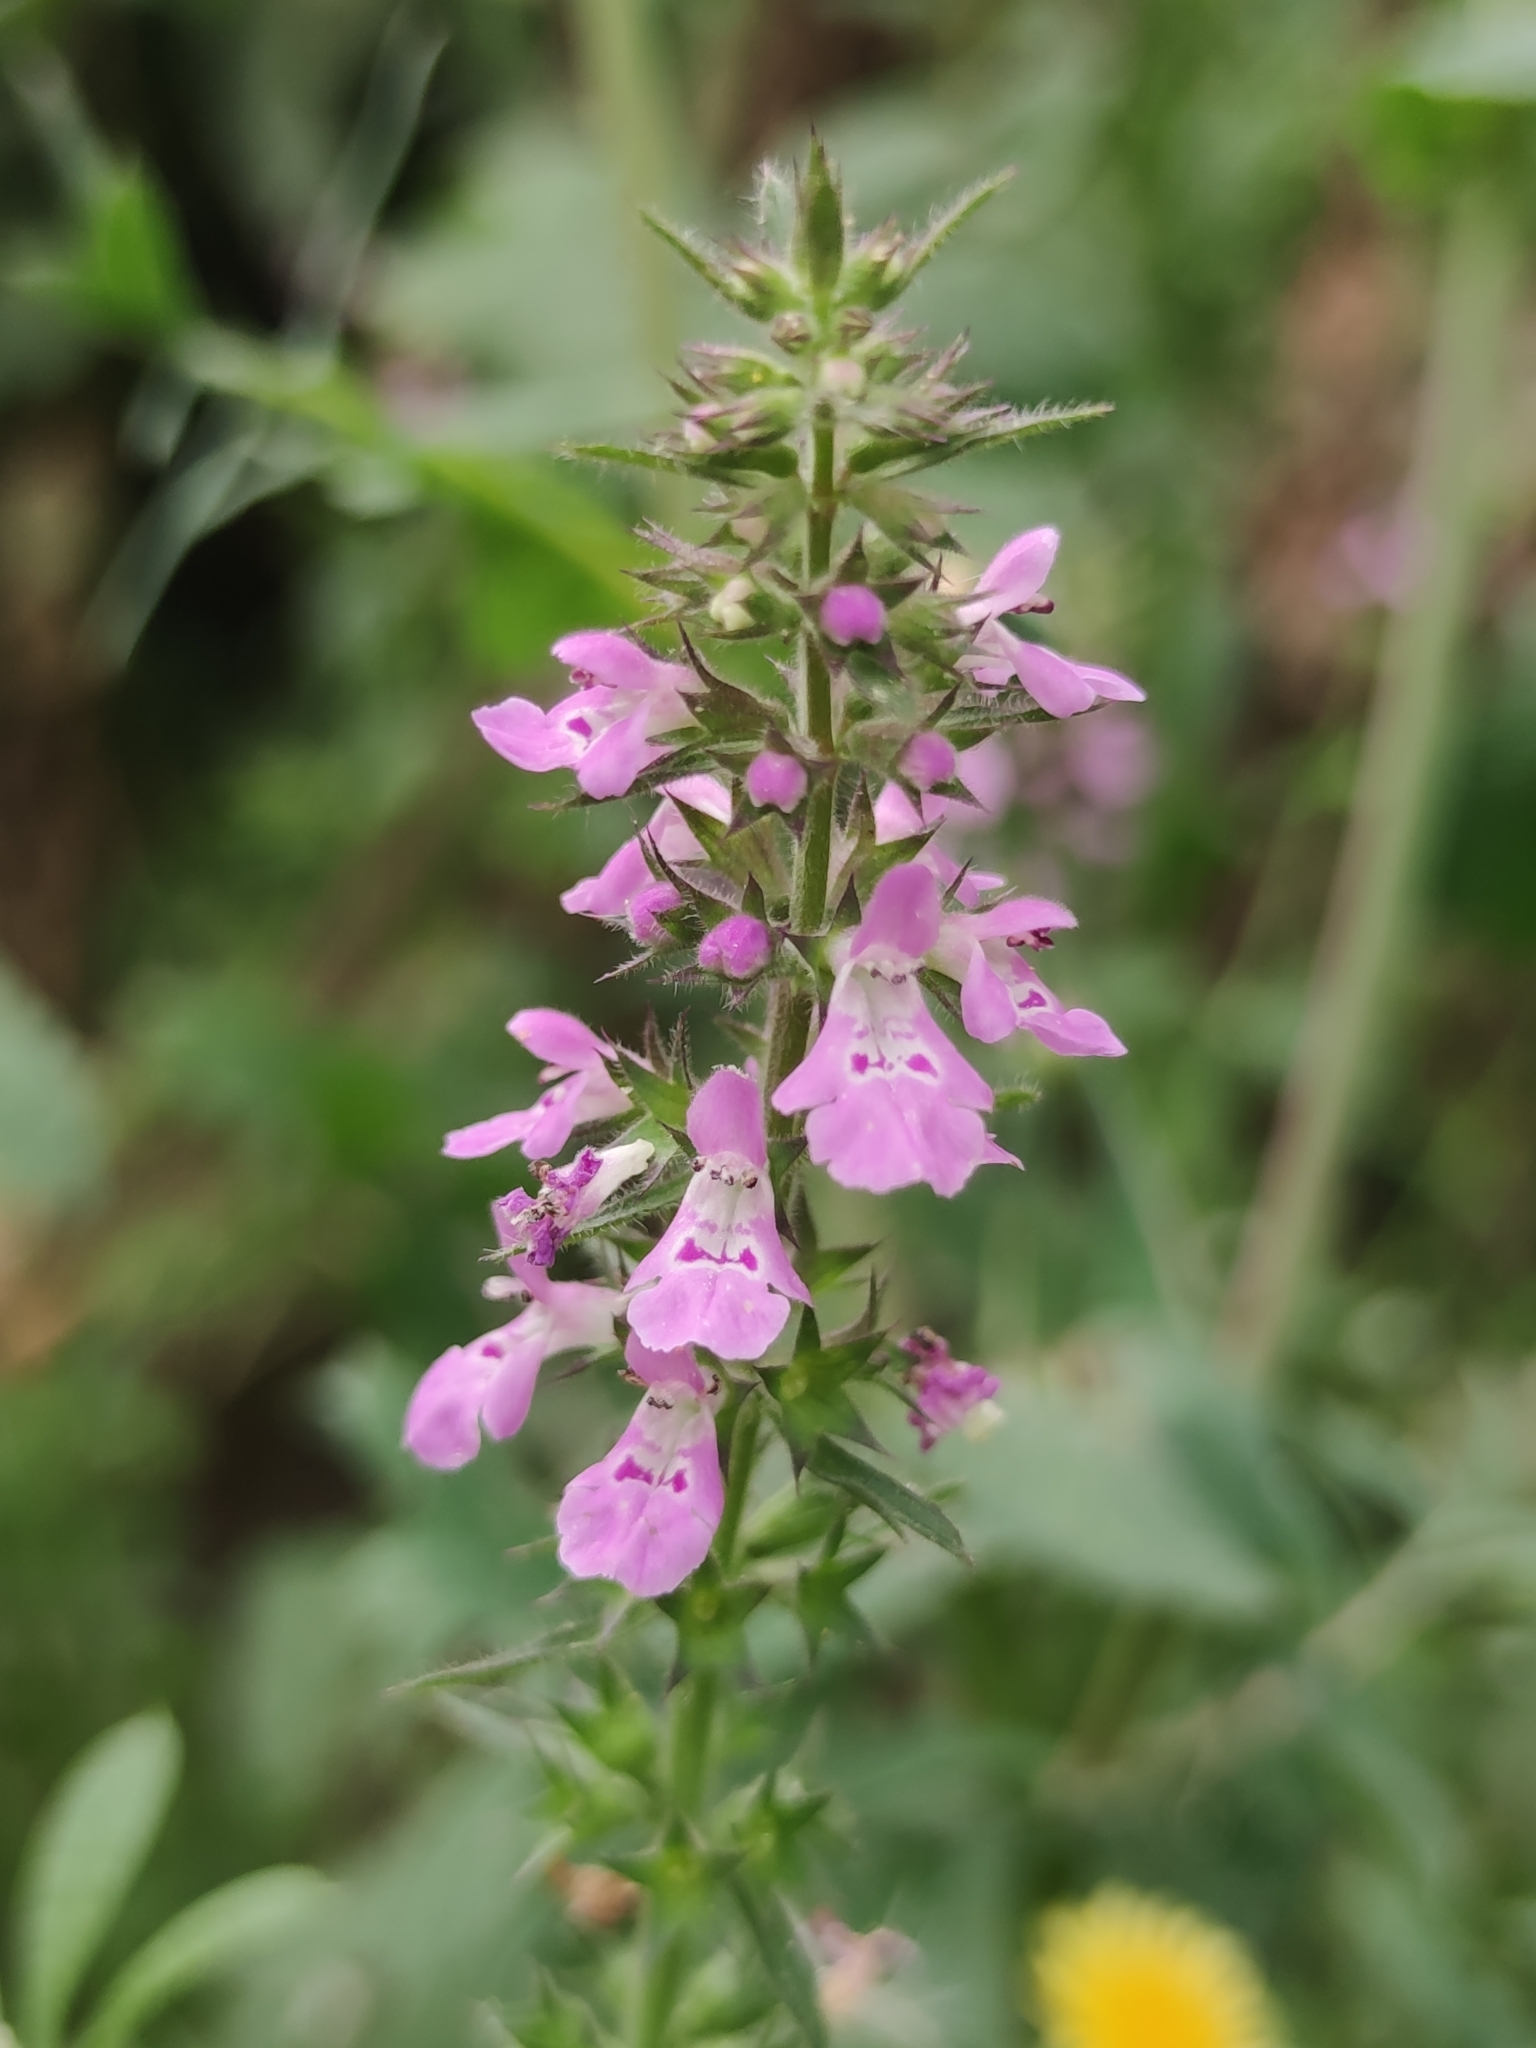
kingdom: Plantae
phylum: Tracheophyta
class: Magnoliopsida
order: Lamiales
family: Lamiaceae
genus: Stachys
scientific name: Stachys drummondii
